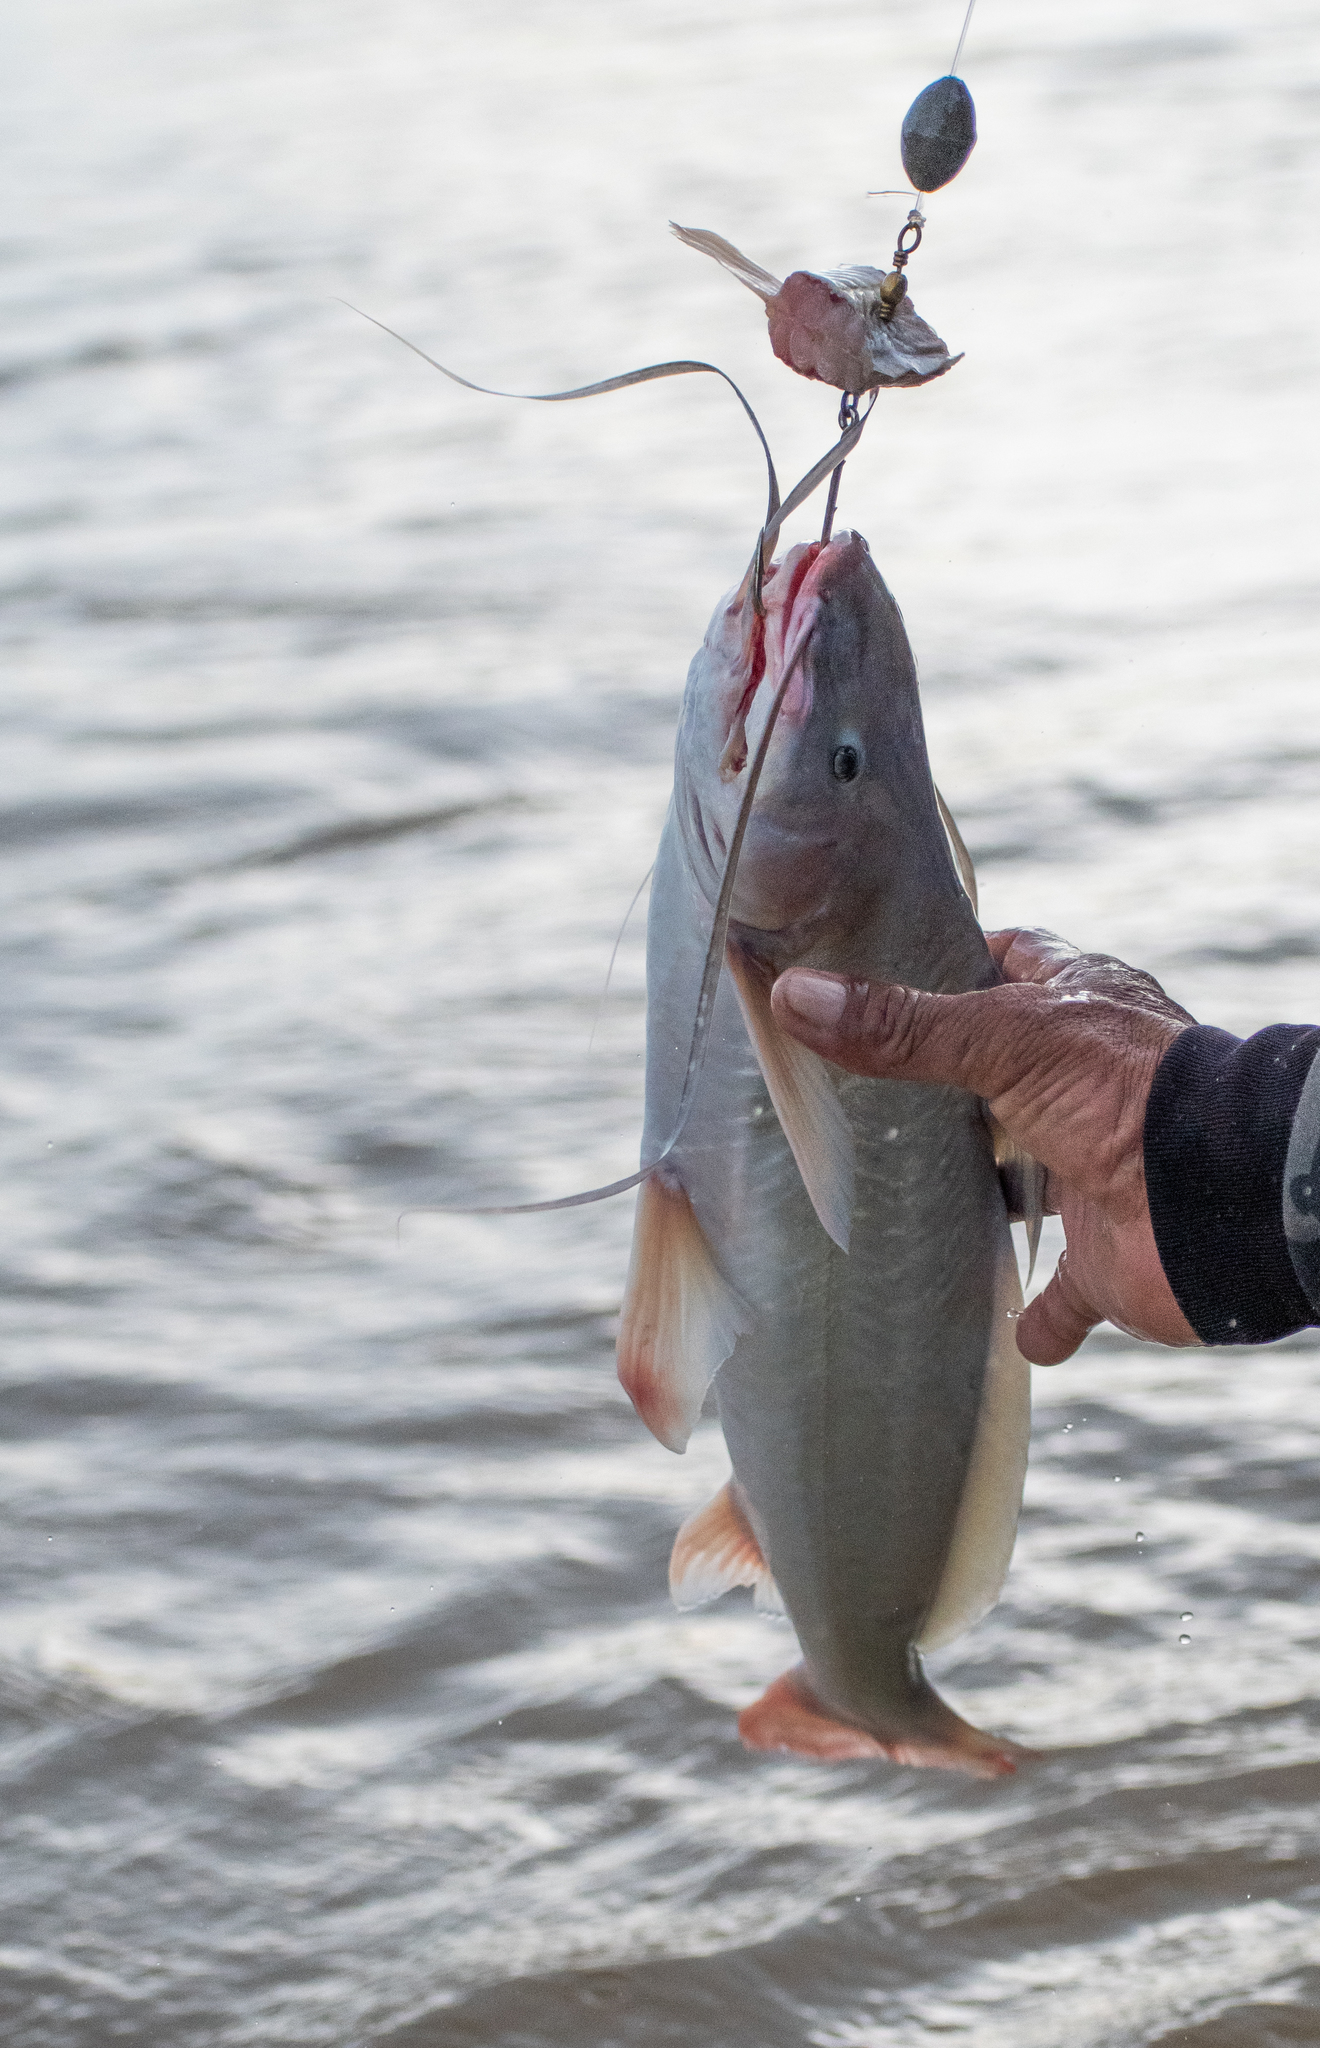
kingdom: Animalia
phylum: Chordata
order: Siluriformes
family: Pimelodidae
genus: Pinirampus
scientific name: Pinirampus pirinampu
